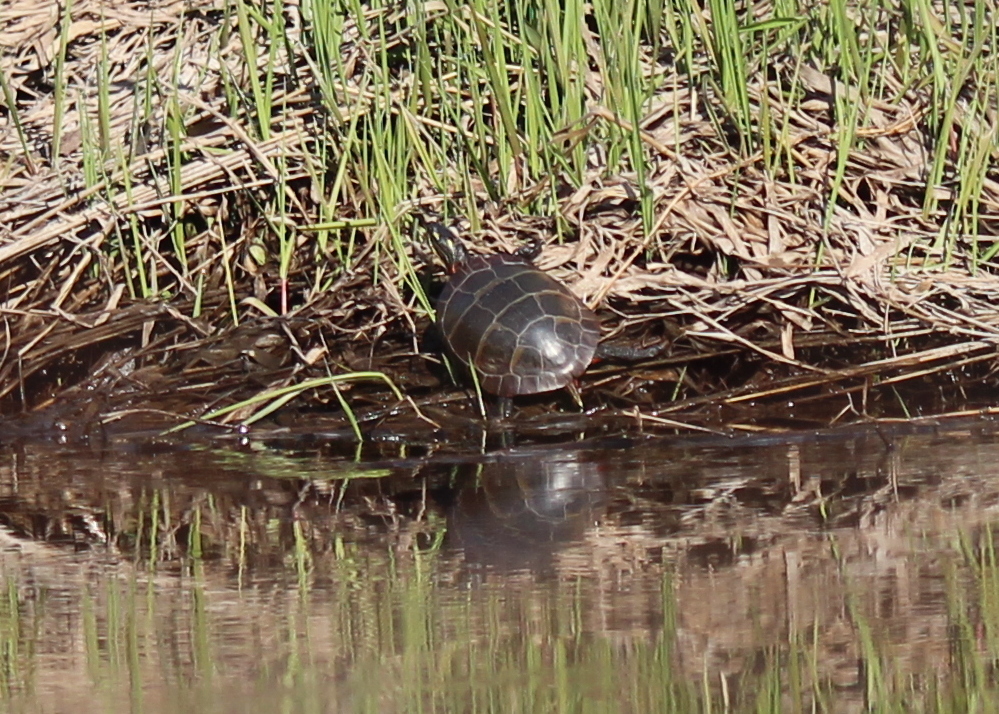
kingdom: Animalia
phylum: Chordata
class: Testudines
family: Emydidae
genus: Chrysemys
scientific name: Chrysemys picta
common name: Painted turtle
